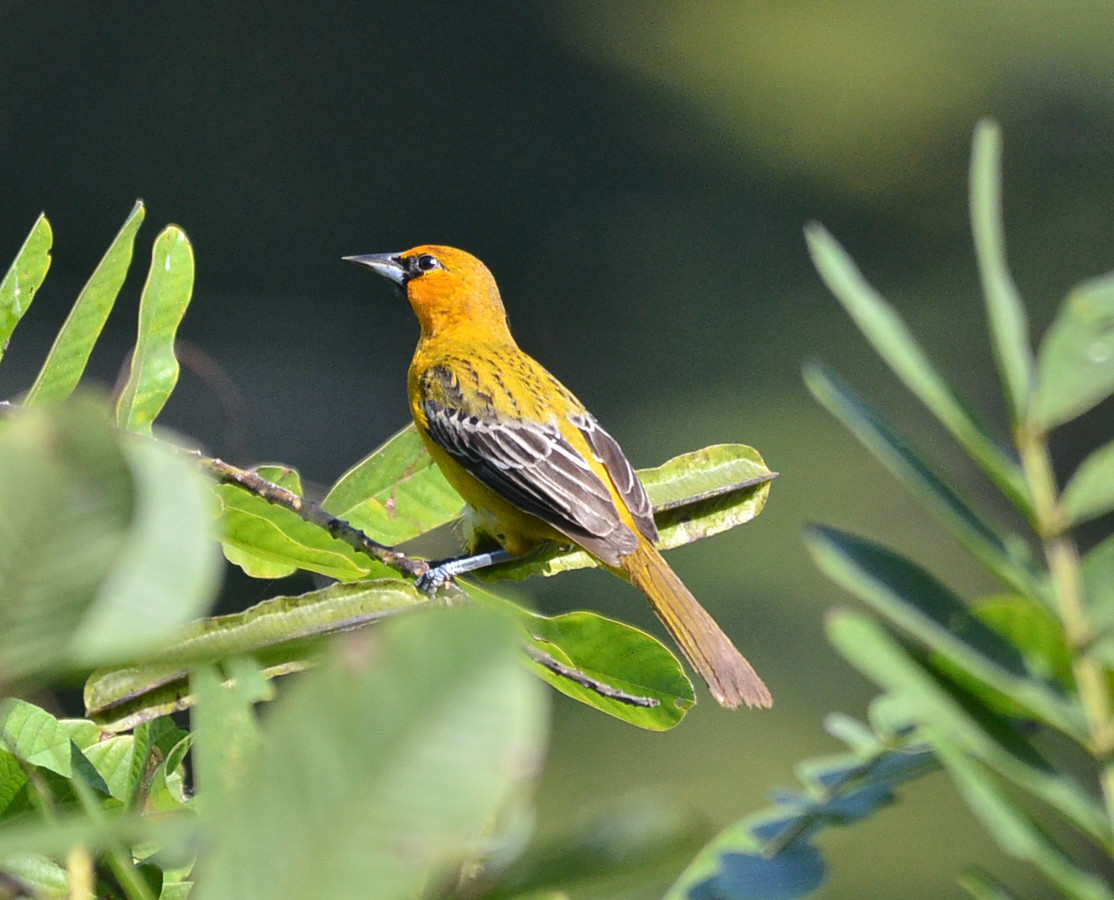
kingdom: Animalia
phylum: Chordata
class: Aves
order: Passeriformes
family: Icteridae
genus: Icterus
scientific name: Icterus pustulatus
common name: Streak-backed oriole
